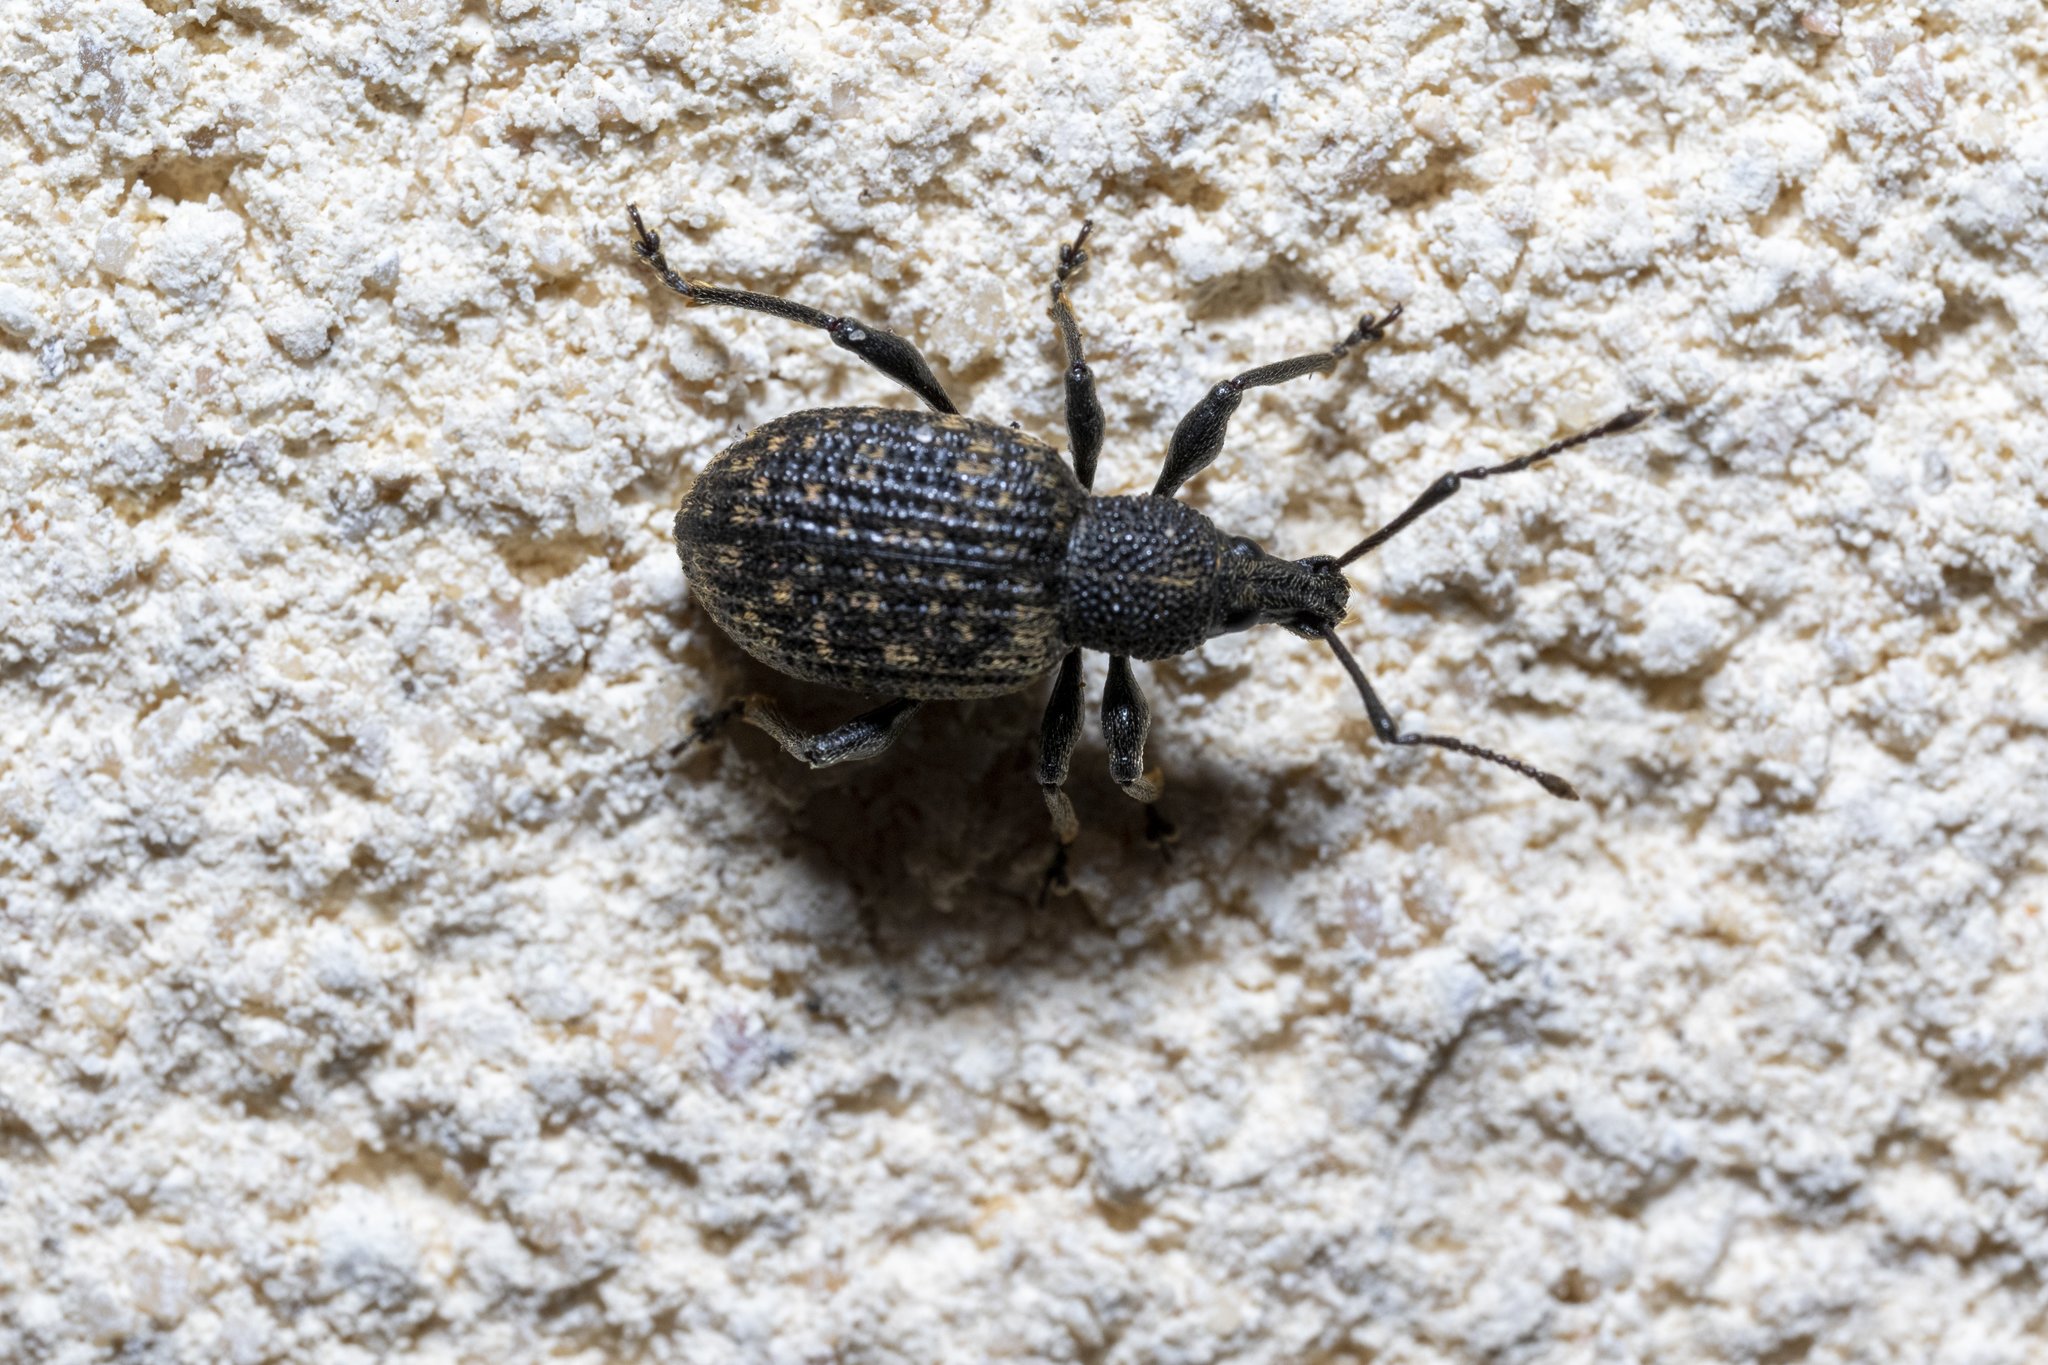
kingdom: Animalia
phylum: Arthropoda
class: Insecta
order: Coleoptera
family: Curculionidae
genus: Otiorhynchus
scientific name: Otiorhynchus sulcatus
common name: Black vine weevil
